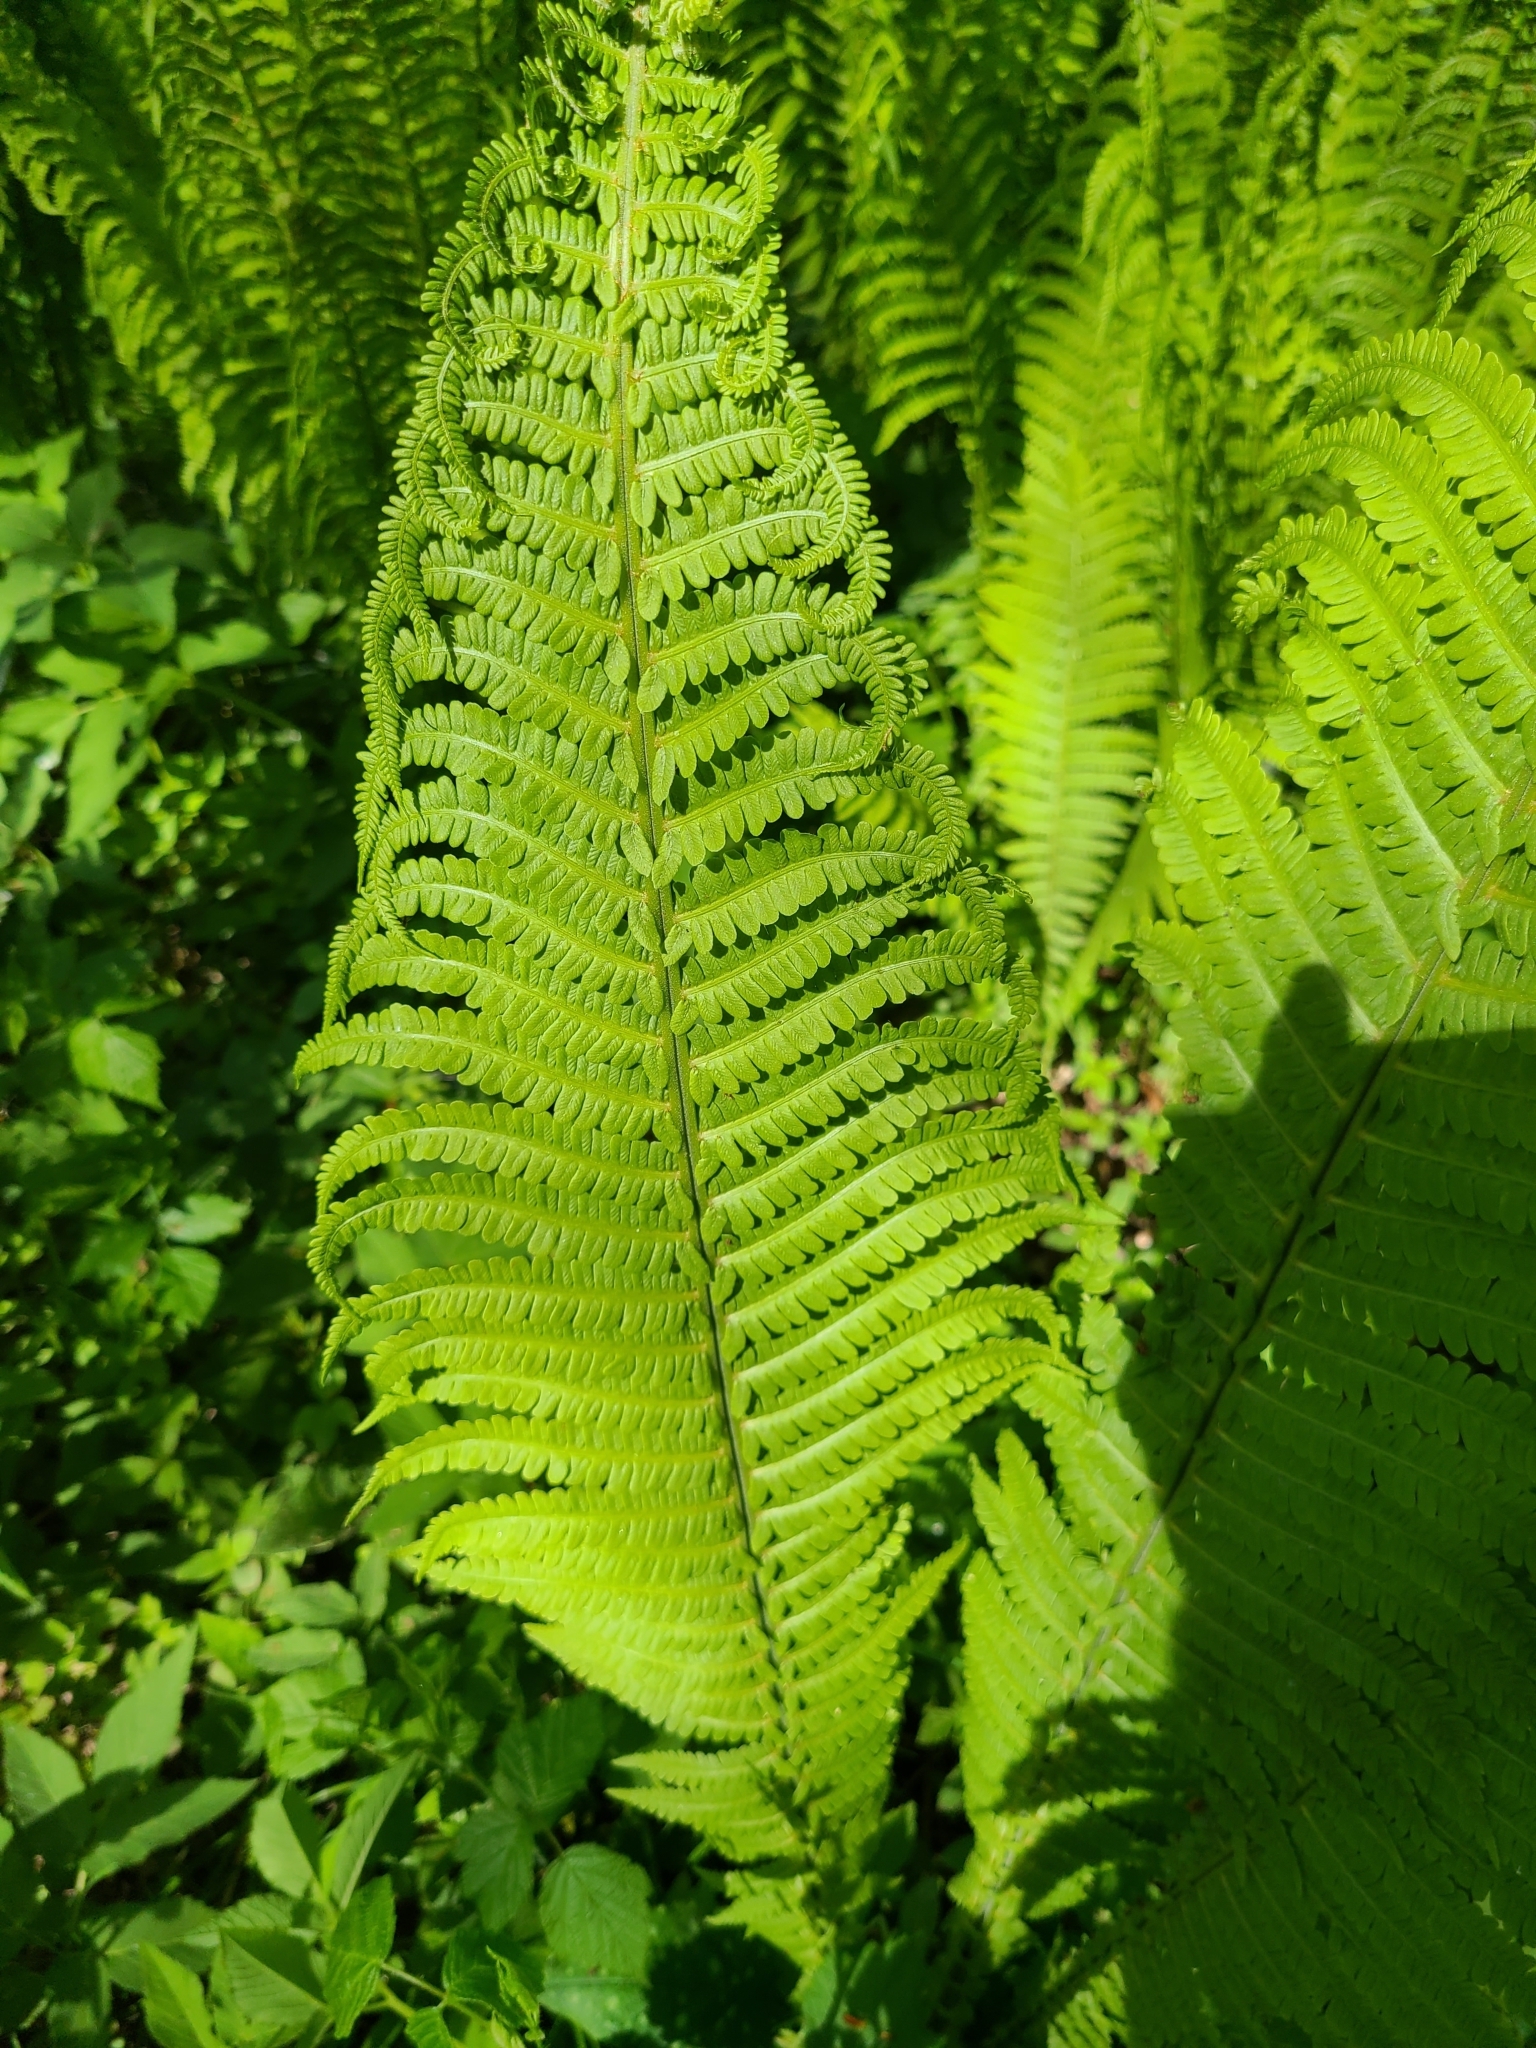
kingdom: Plantae
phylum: Tracheophyta
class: Polypodiopsida
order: Polypodiales
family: Onocleaceae
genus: Matteuccia
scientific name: Matteuccia struthiopteris
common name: Ostrich fern
